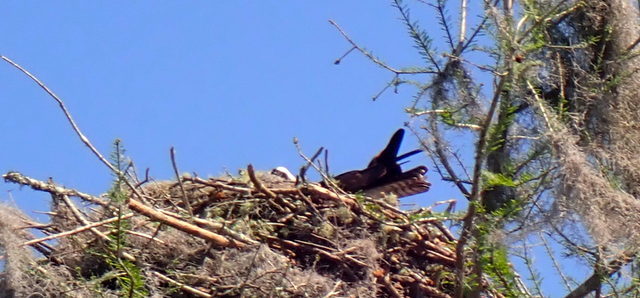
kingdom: Animalia
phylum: Chordata
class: Aves
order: Accipitriformes
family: Pandionidae
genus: Pandion
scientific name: Pandion haliaetus
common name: Osprey
